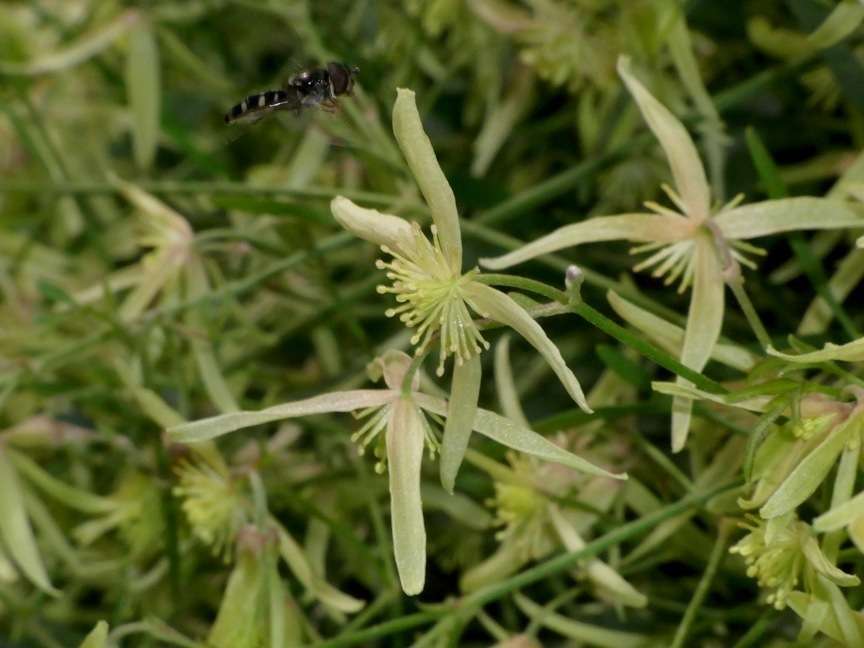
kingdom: Plantae
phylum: Tracheophyta
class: Magnoliopsida
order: Ranunculales
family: Ranunculaceae
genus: Clematis
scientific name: Clematis microphylla
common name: Headachevine
